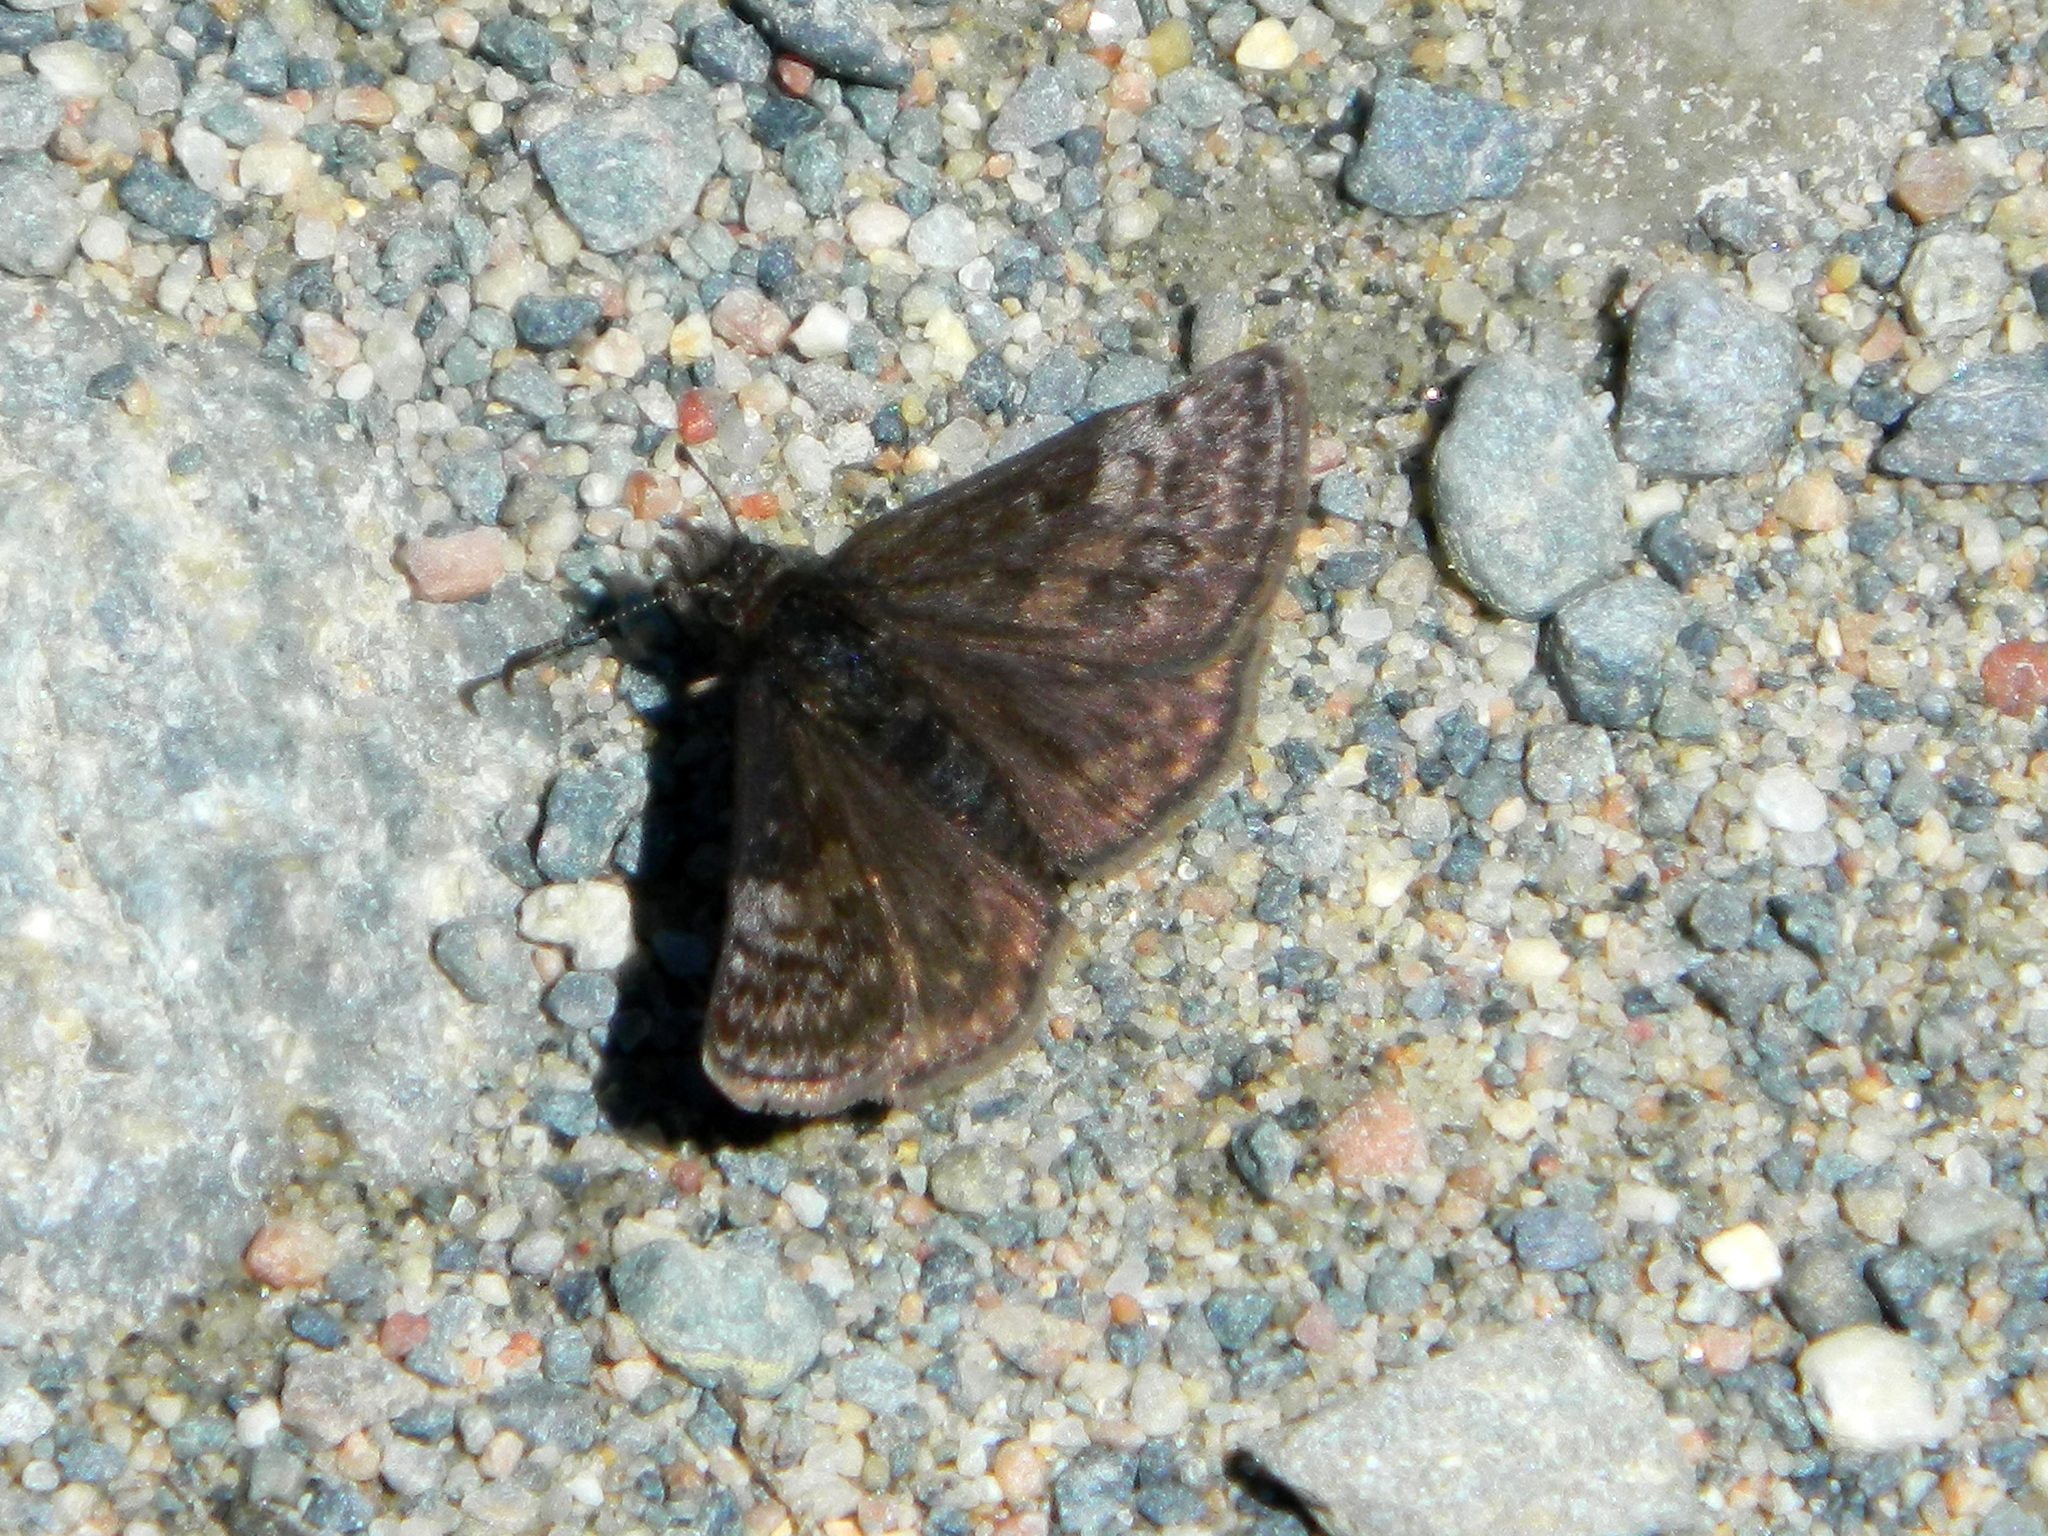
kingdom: Animalia
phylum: Arthropoda
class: Insecta
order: Lepidoptera
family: Hesperiidae
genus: Erynnis
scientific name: Erynnis icelus
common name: Dreamy duskywing
